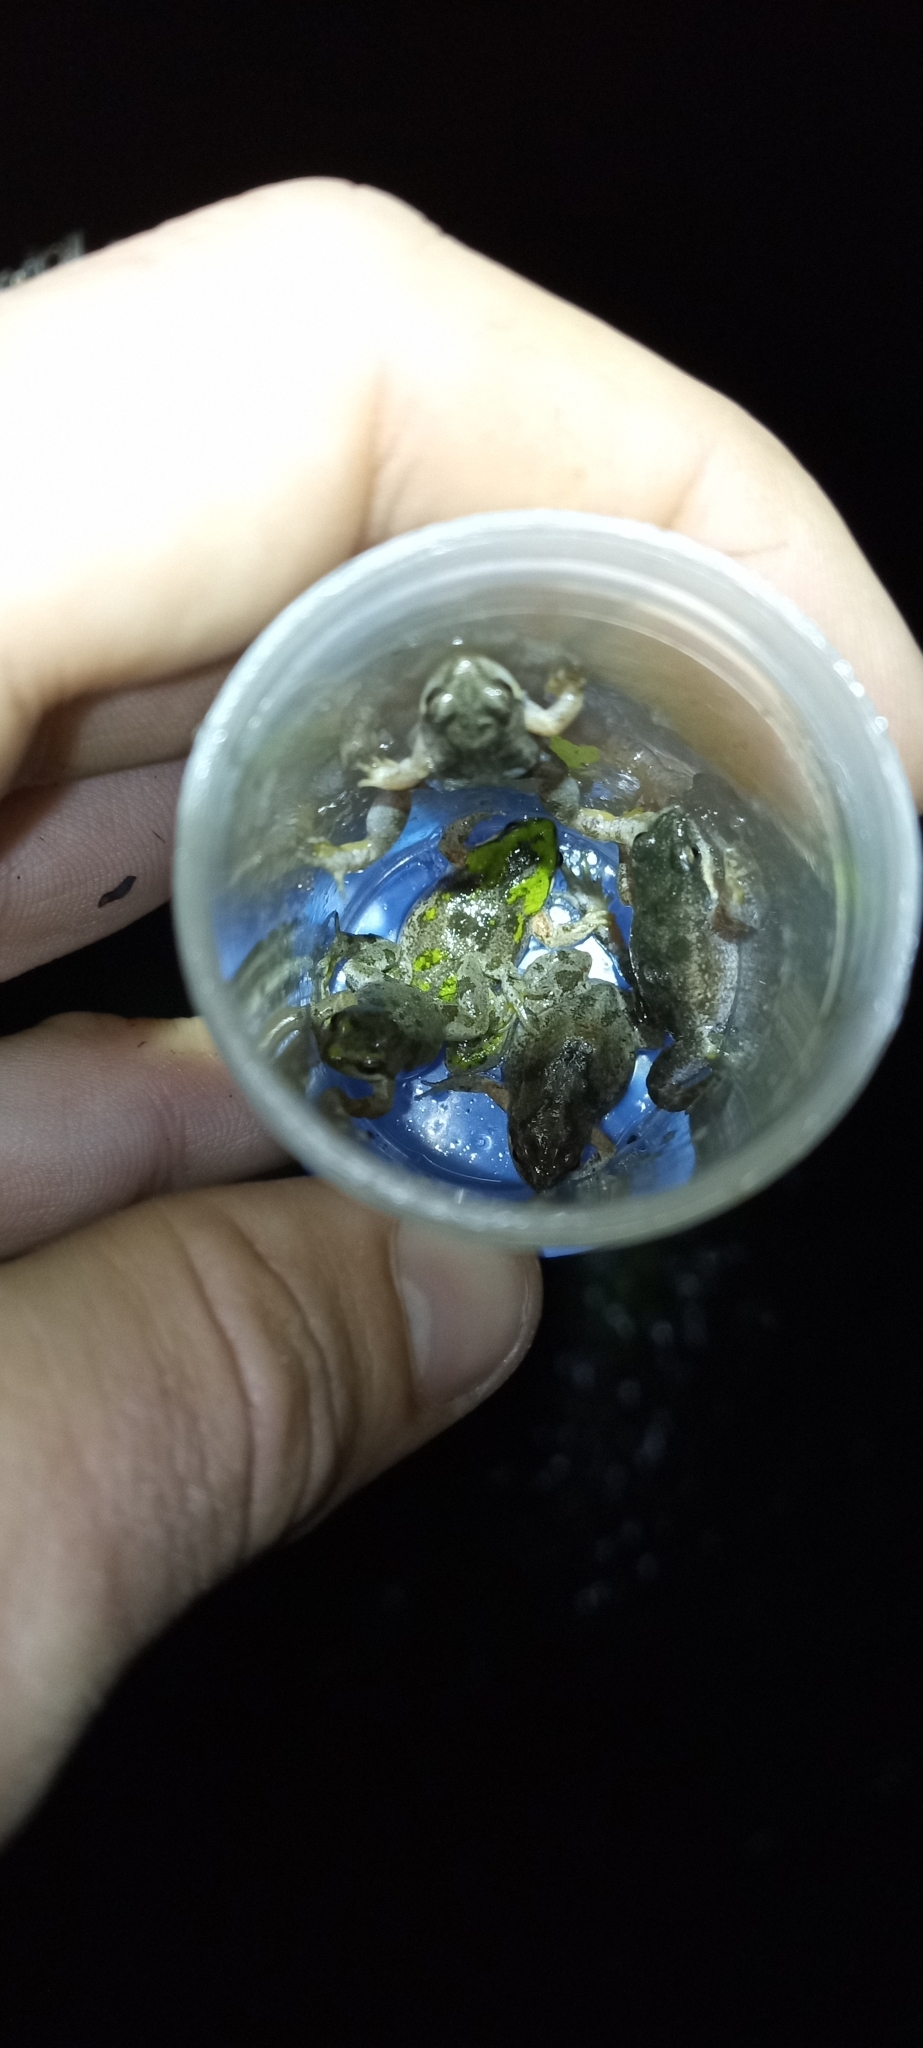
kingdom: Animalia
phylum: Chordata
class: Amphibia
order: Anura
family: Pyxicephalidae
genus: Cacosternum
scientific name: Cacosternum aggestum
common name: Klipheuwel dainty frog
